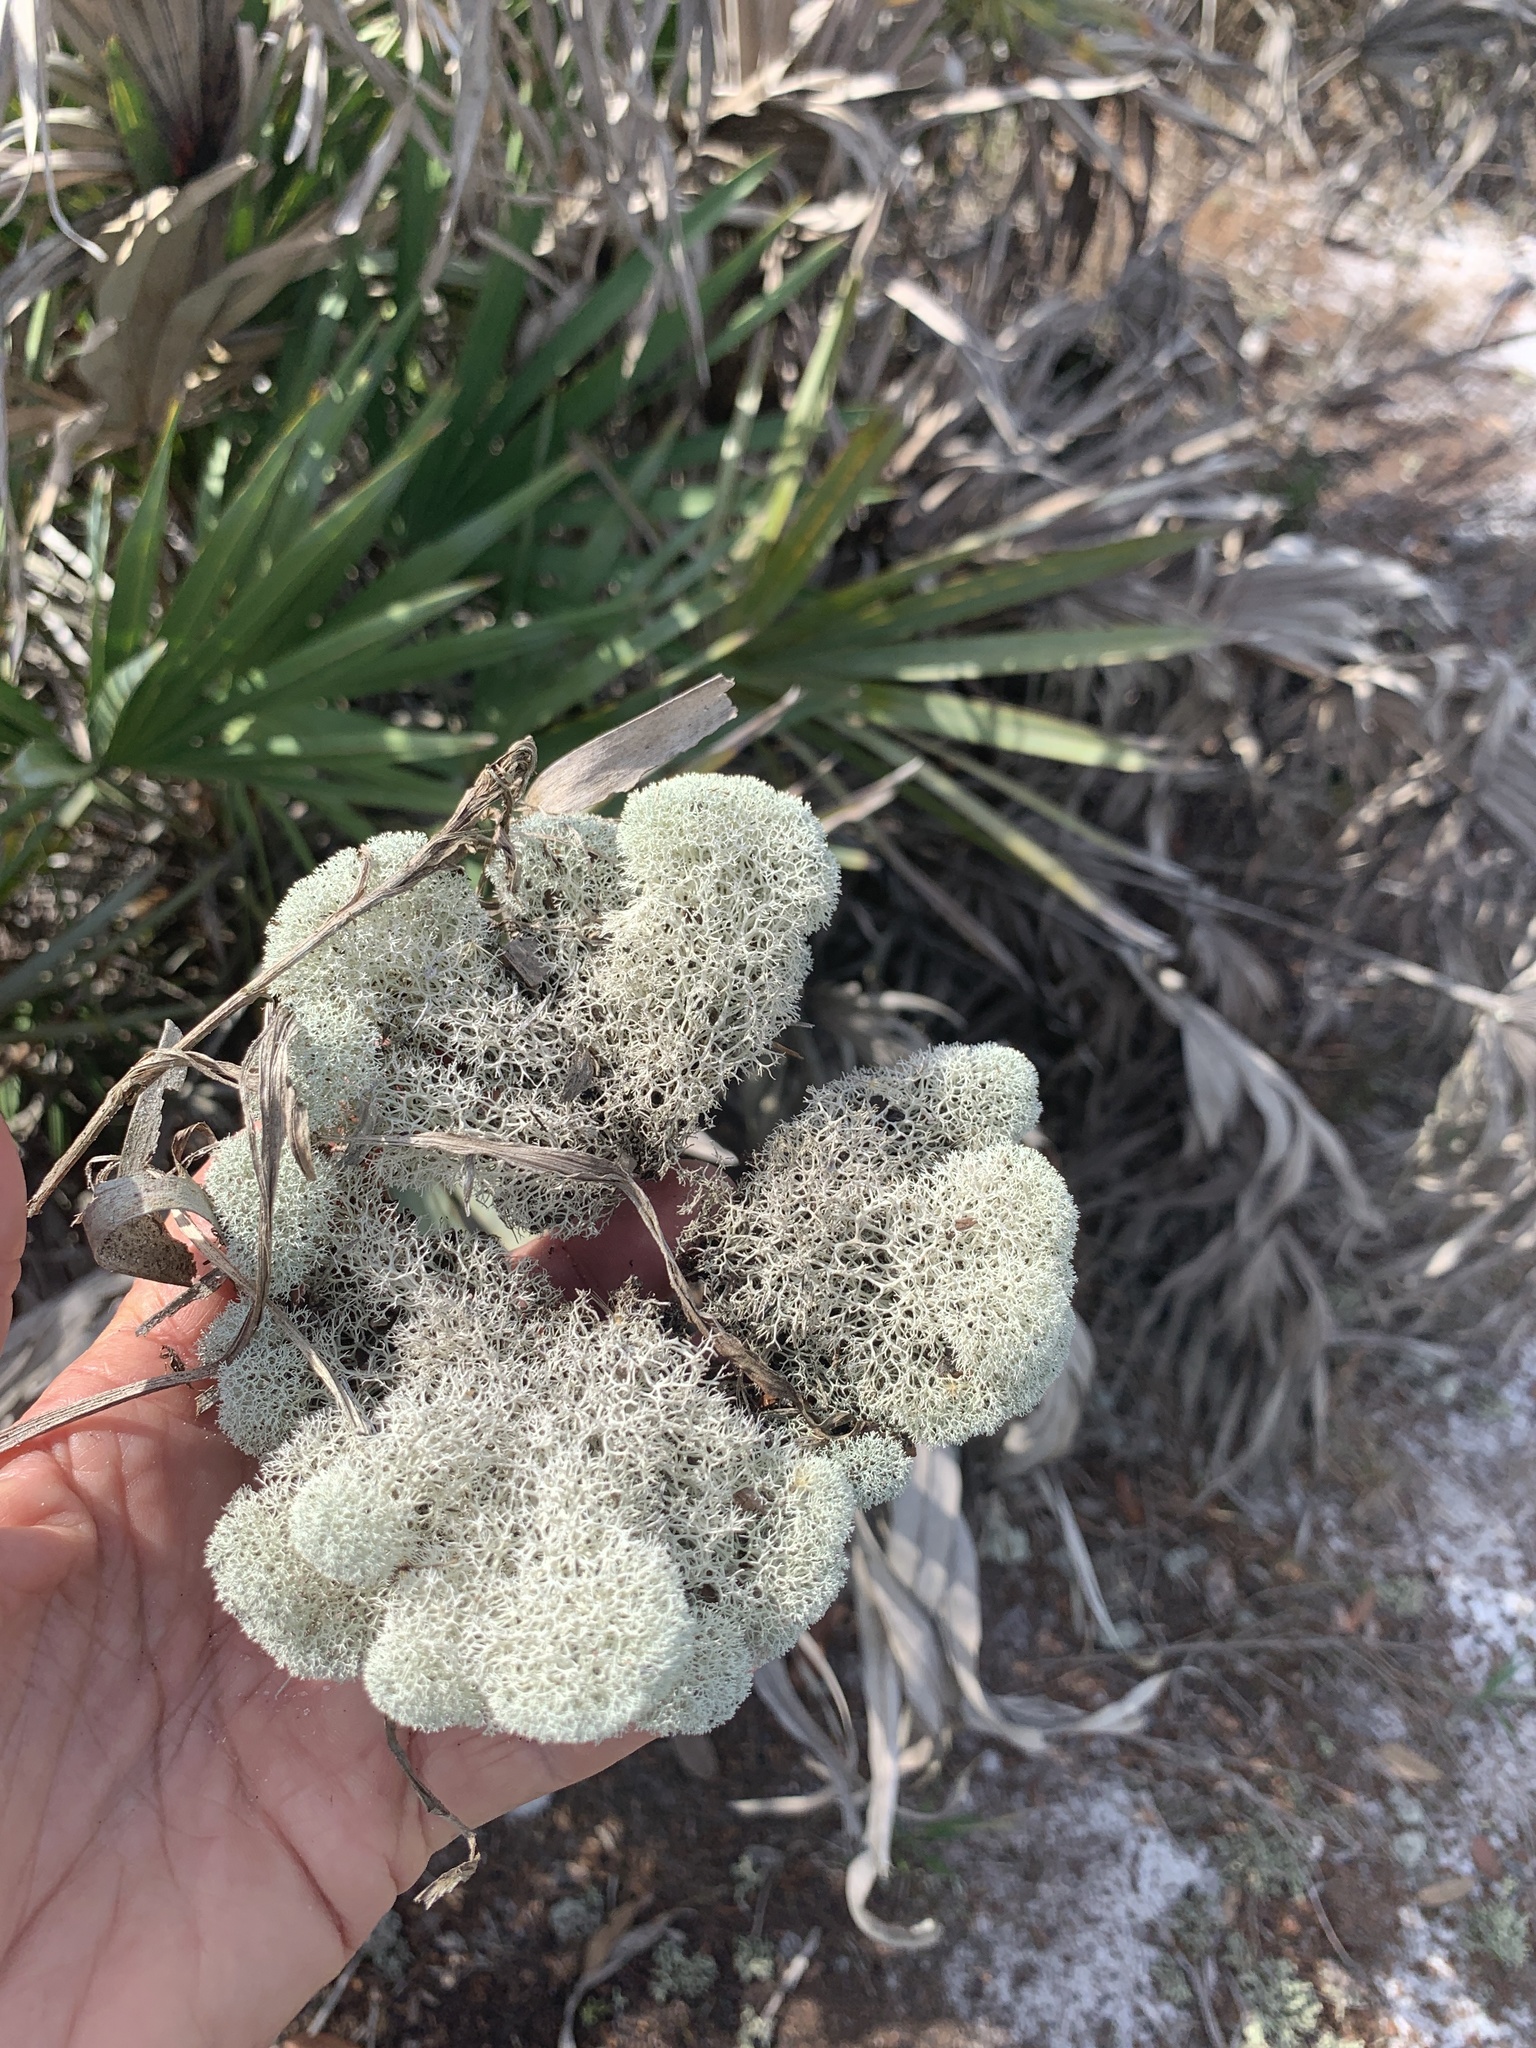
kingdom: Fungi
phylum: Ascomycota
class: Lecanoromycetes
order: Lecanorales
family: Cladoniaceae
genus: Cladonia
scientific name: Cladonia evansii
